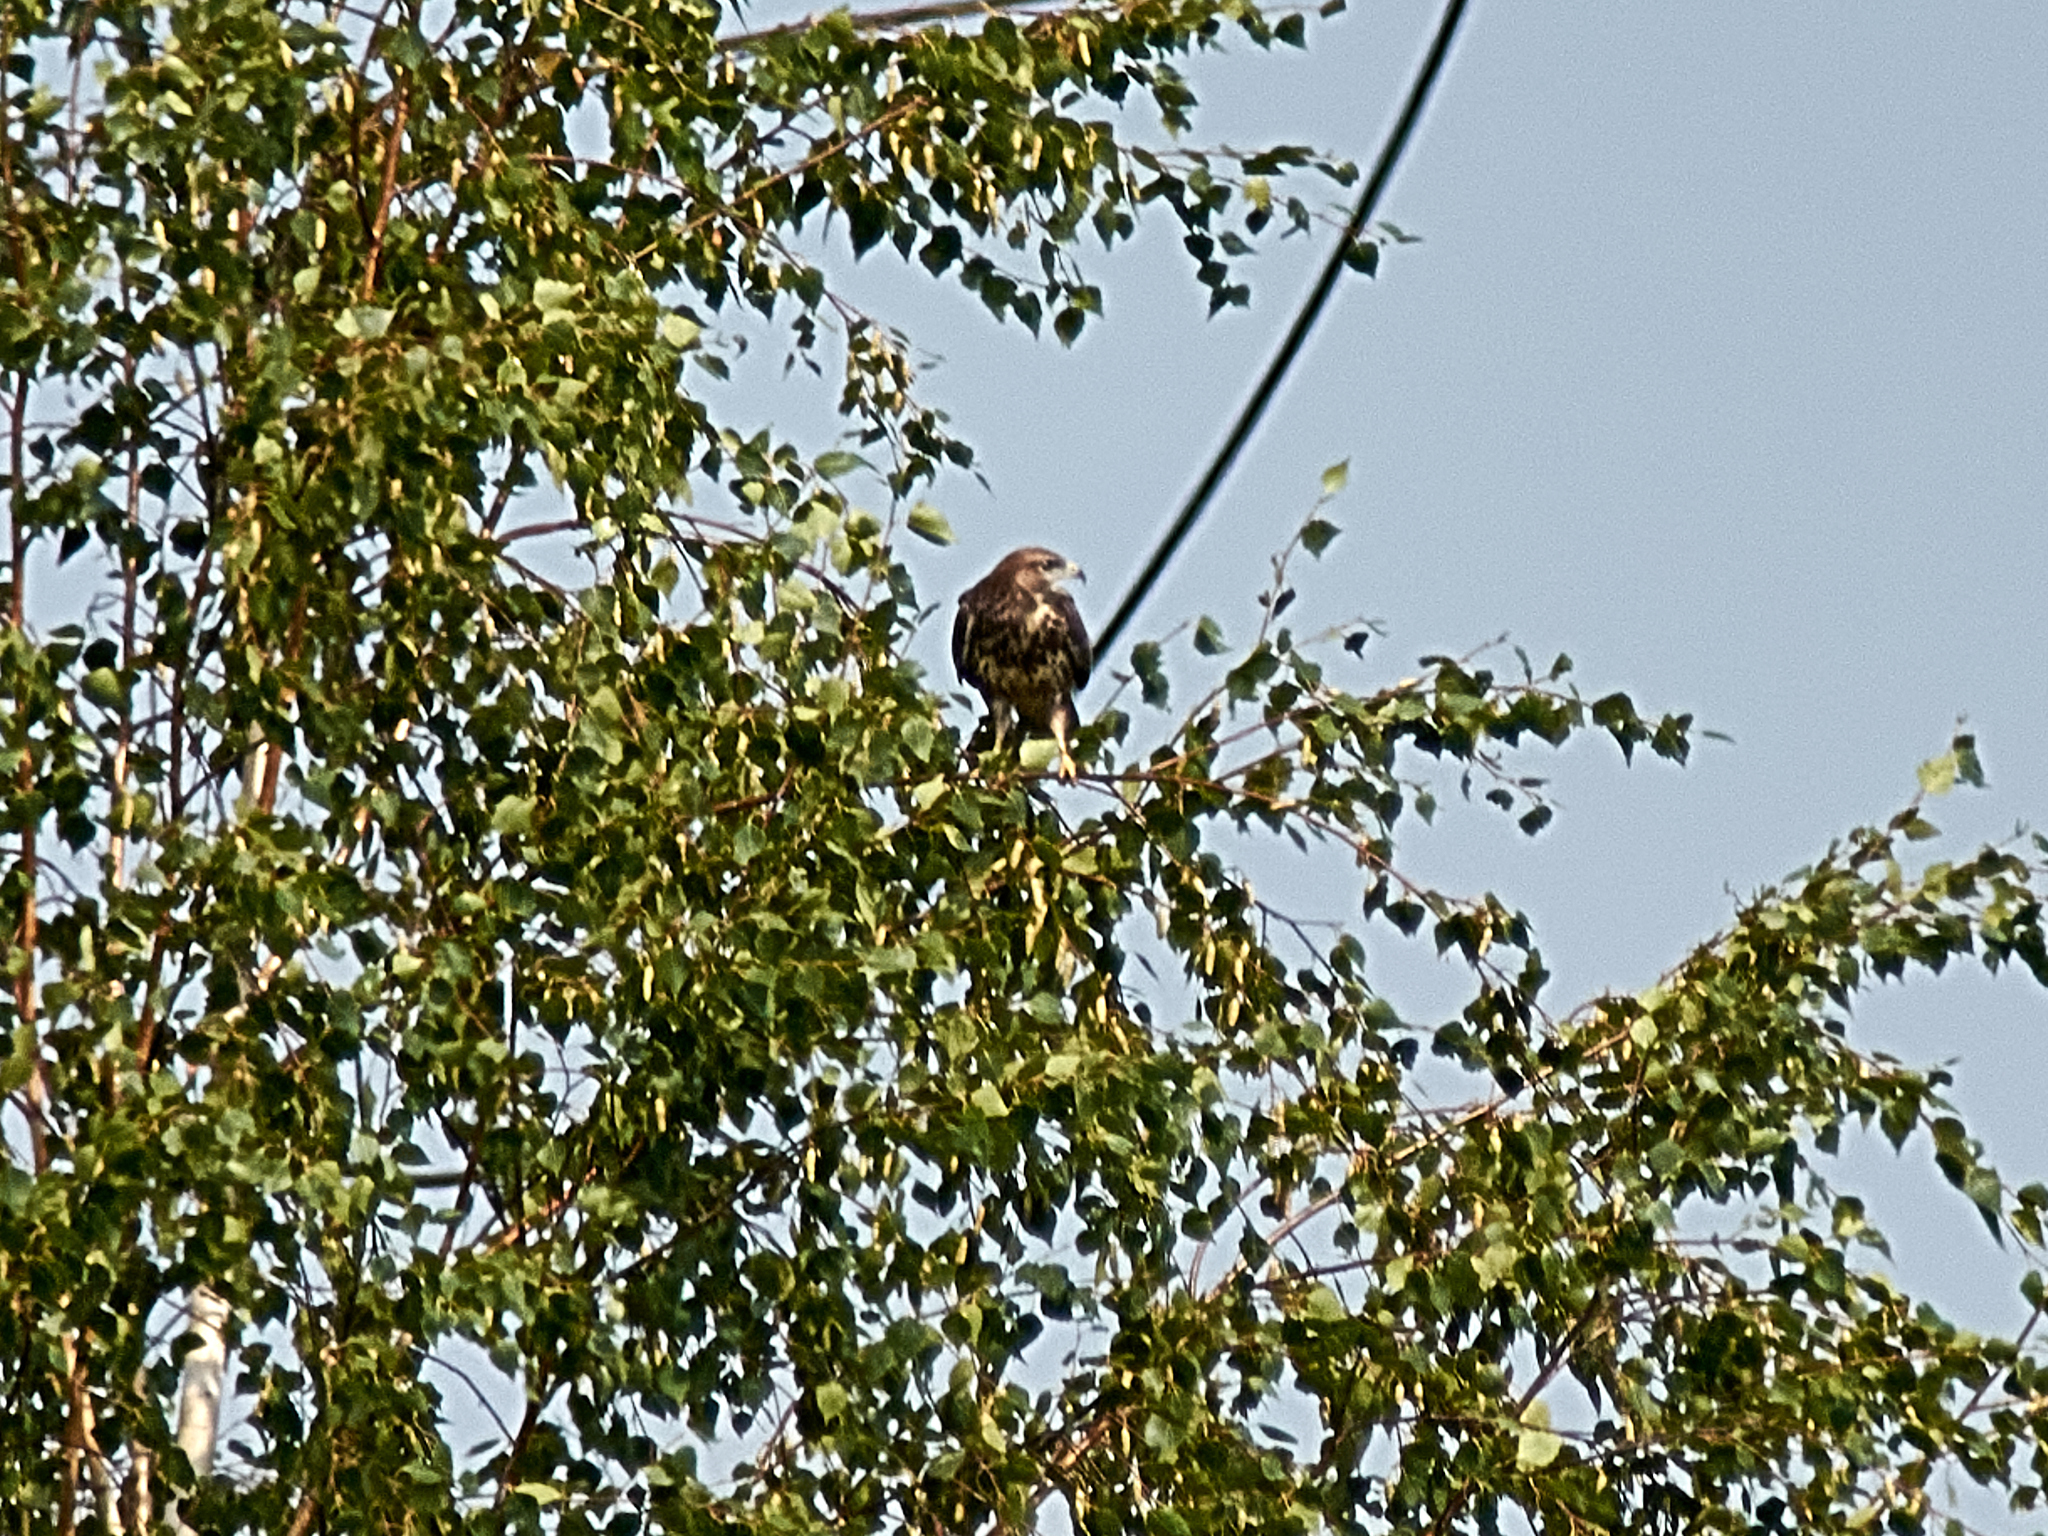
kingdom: Animalia
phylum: Chordata
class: Aves
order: Accipitriformes
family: Accipitridae
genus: Buteo
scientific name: Buteo buteo
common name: Common buzzard
